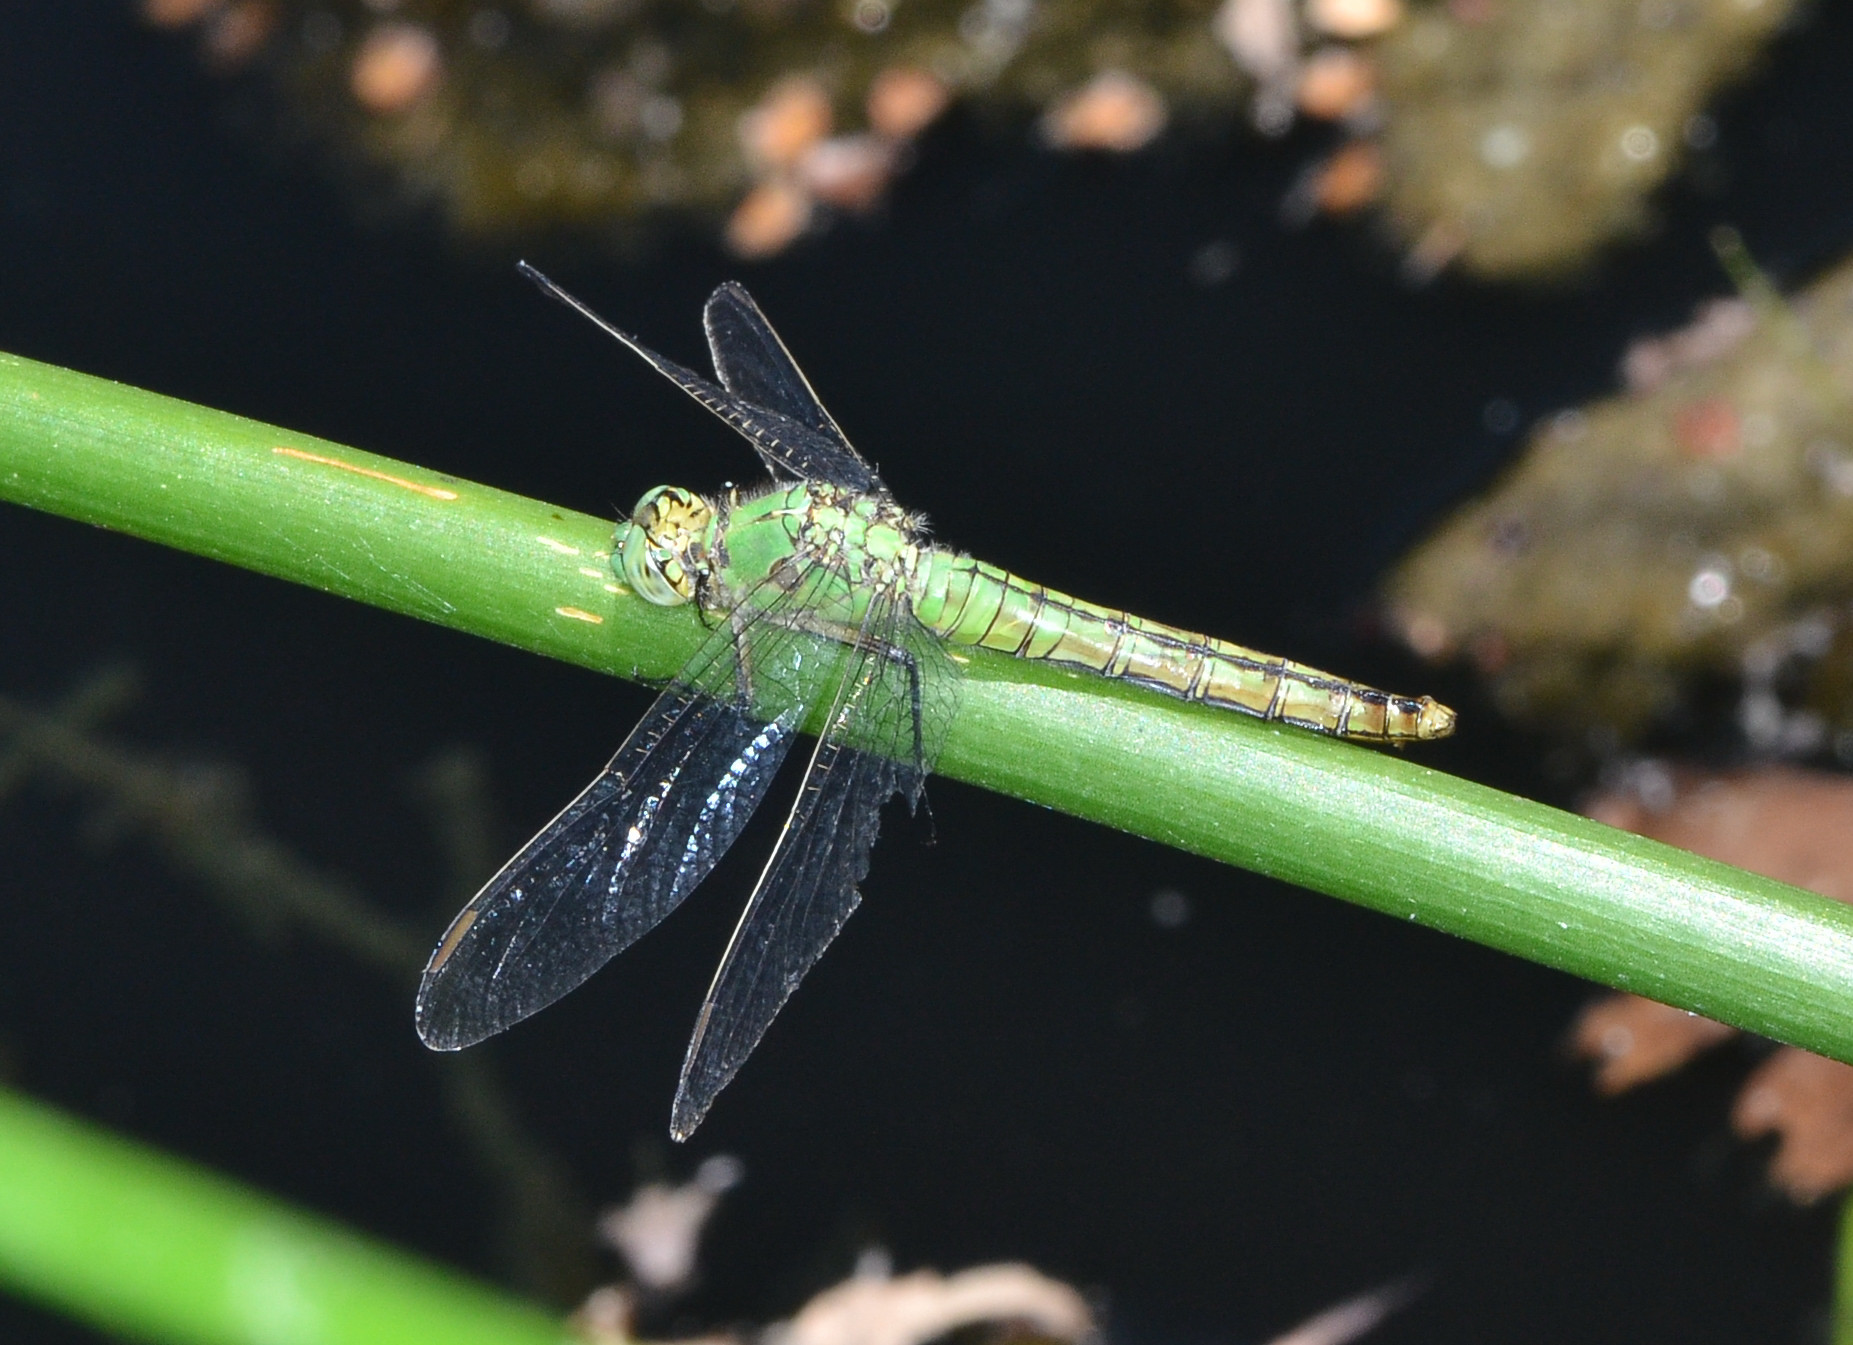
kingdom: Animalia
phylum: Arthropoda
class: Insecta
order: Odonata
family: Libellulidae
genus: Erythemis
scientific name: Erythemis collocata
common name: Western pondhawk
